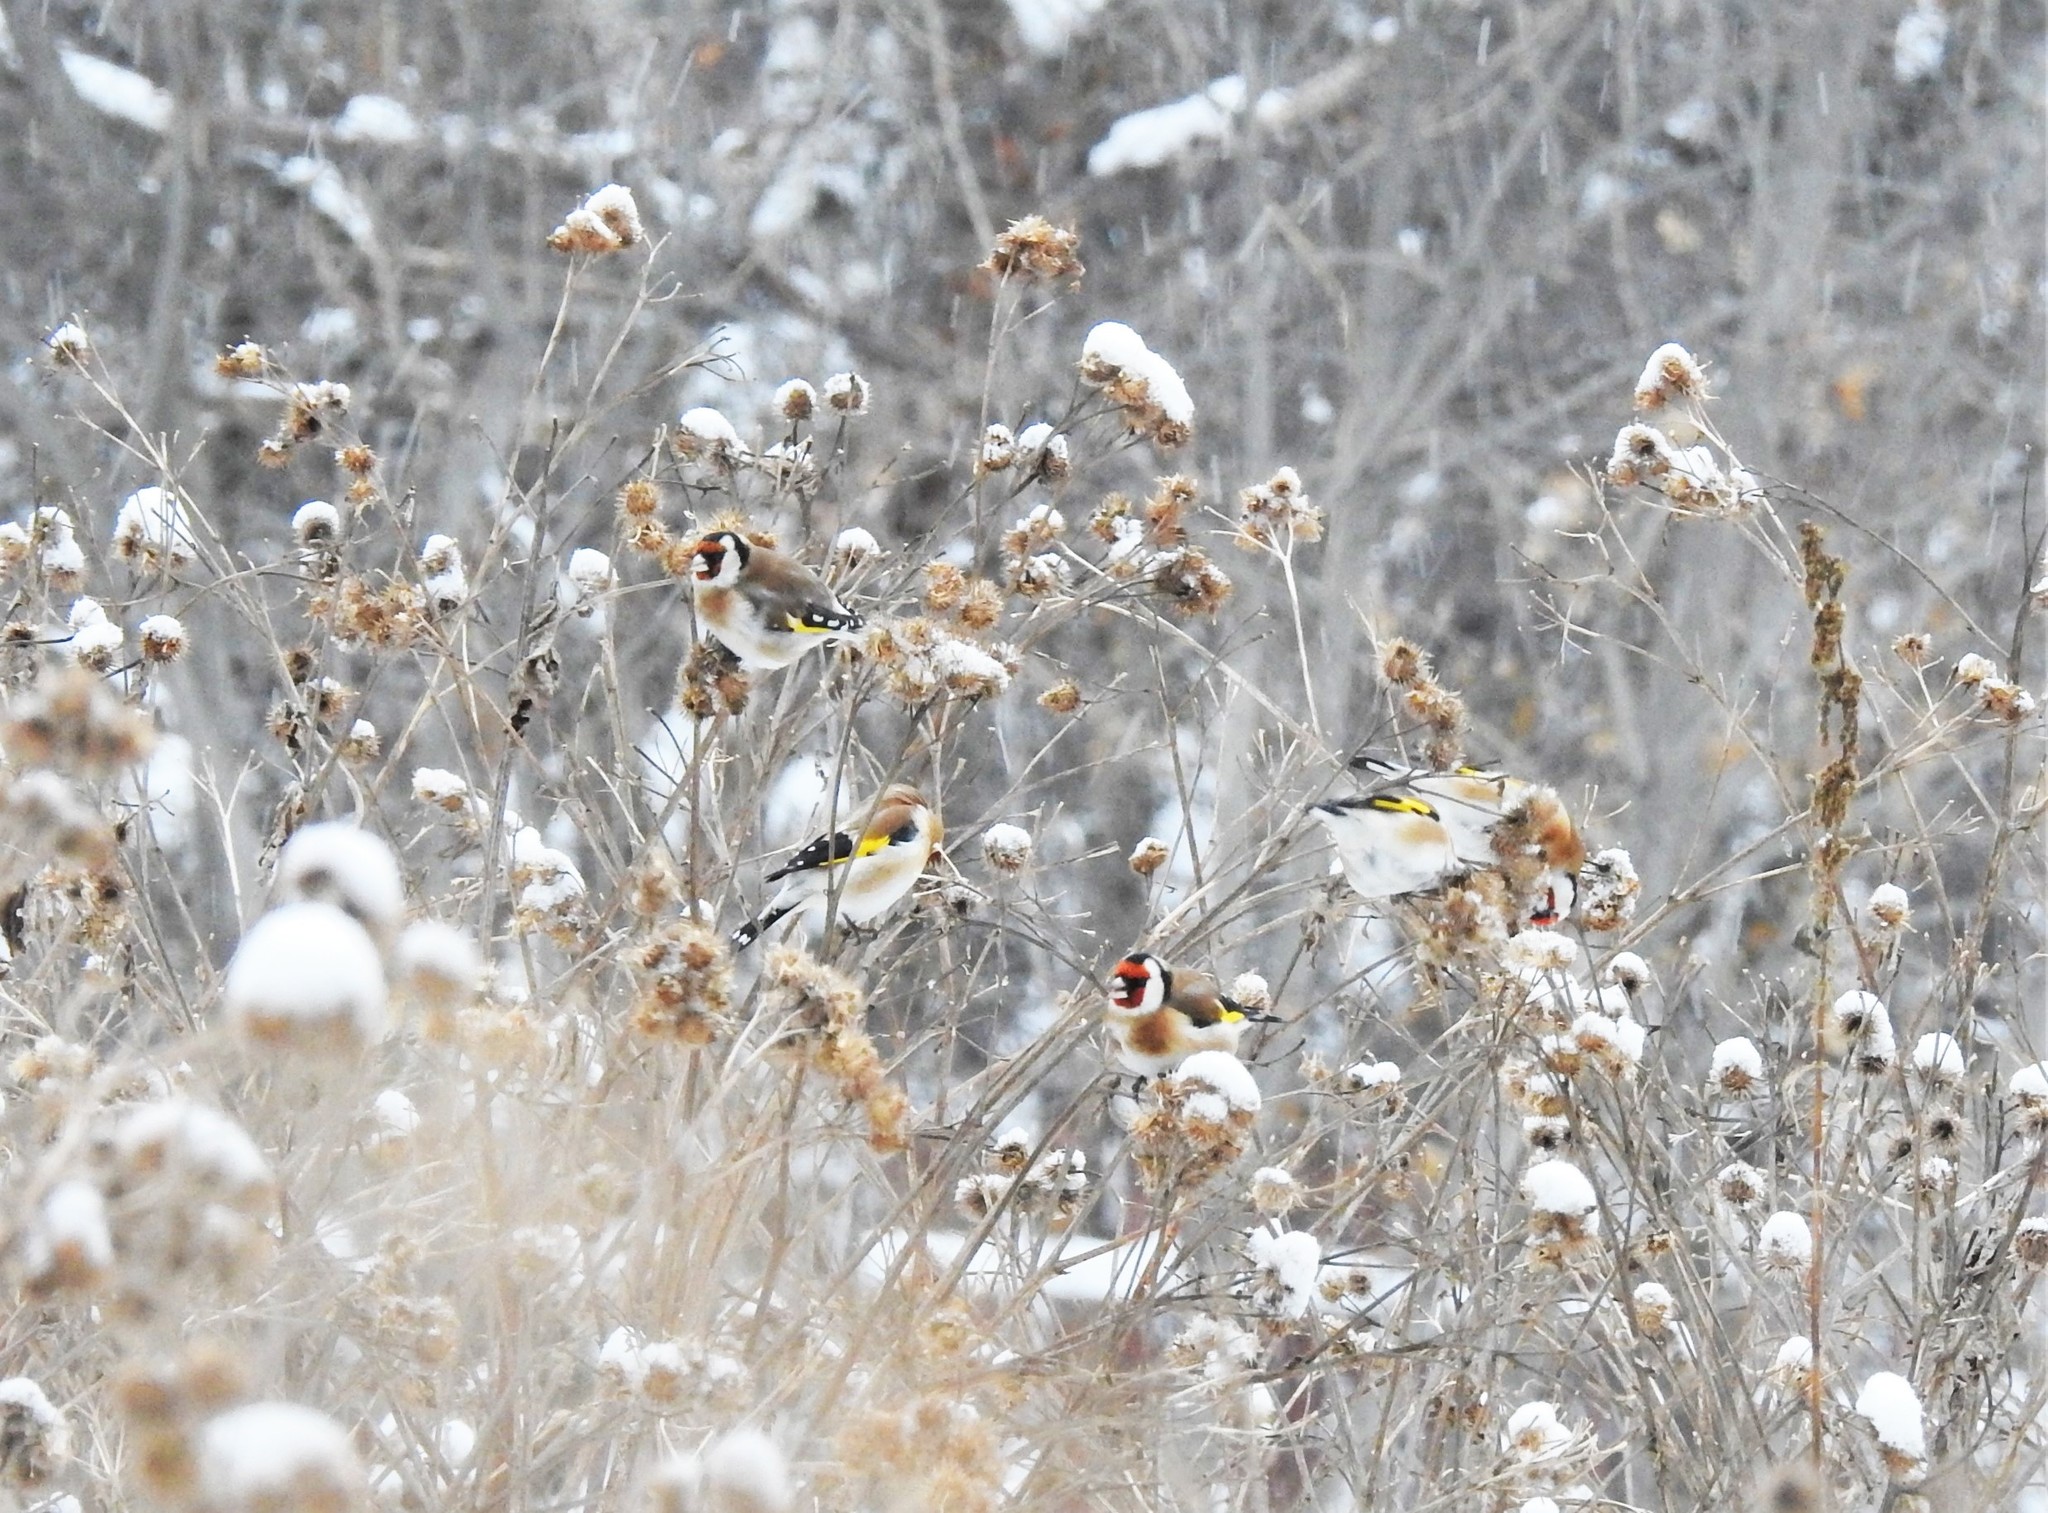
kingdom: Animalia
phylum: Chordata
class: Aves
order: Passeriformes
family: Fringillidae
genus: Carduelis
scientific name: Carduelis carduelis
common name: European goldfinch
